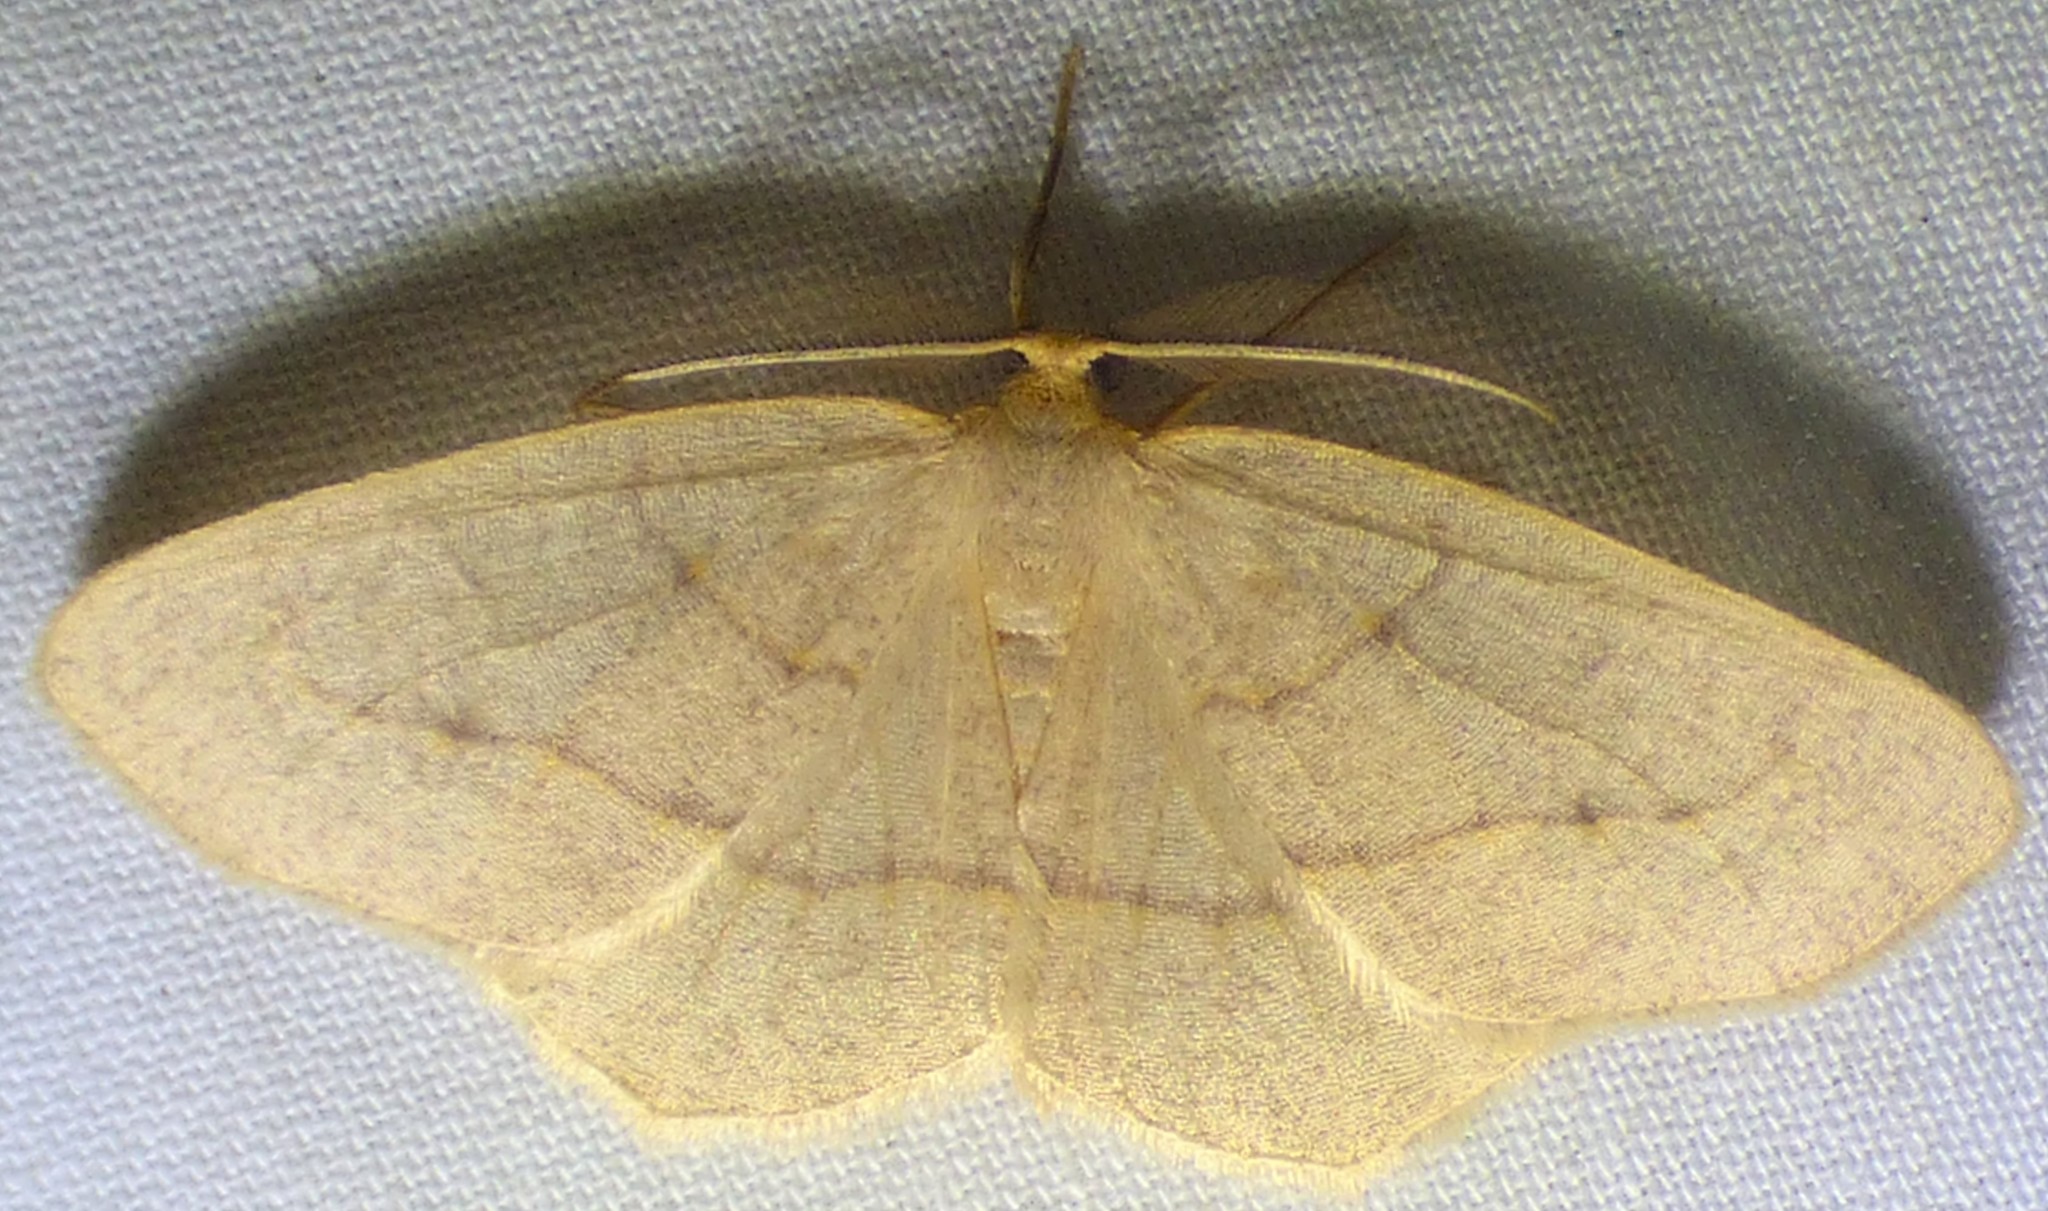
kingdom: Animalia
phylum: Arthropoda
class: Insecta
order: Lepidoptera
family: Geometridae
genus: Lambdina
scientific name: Lambdina fervidaria
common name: Curve-lined looper moth
